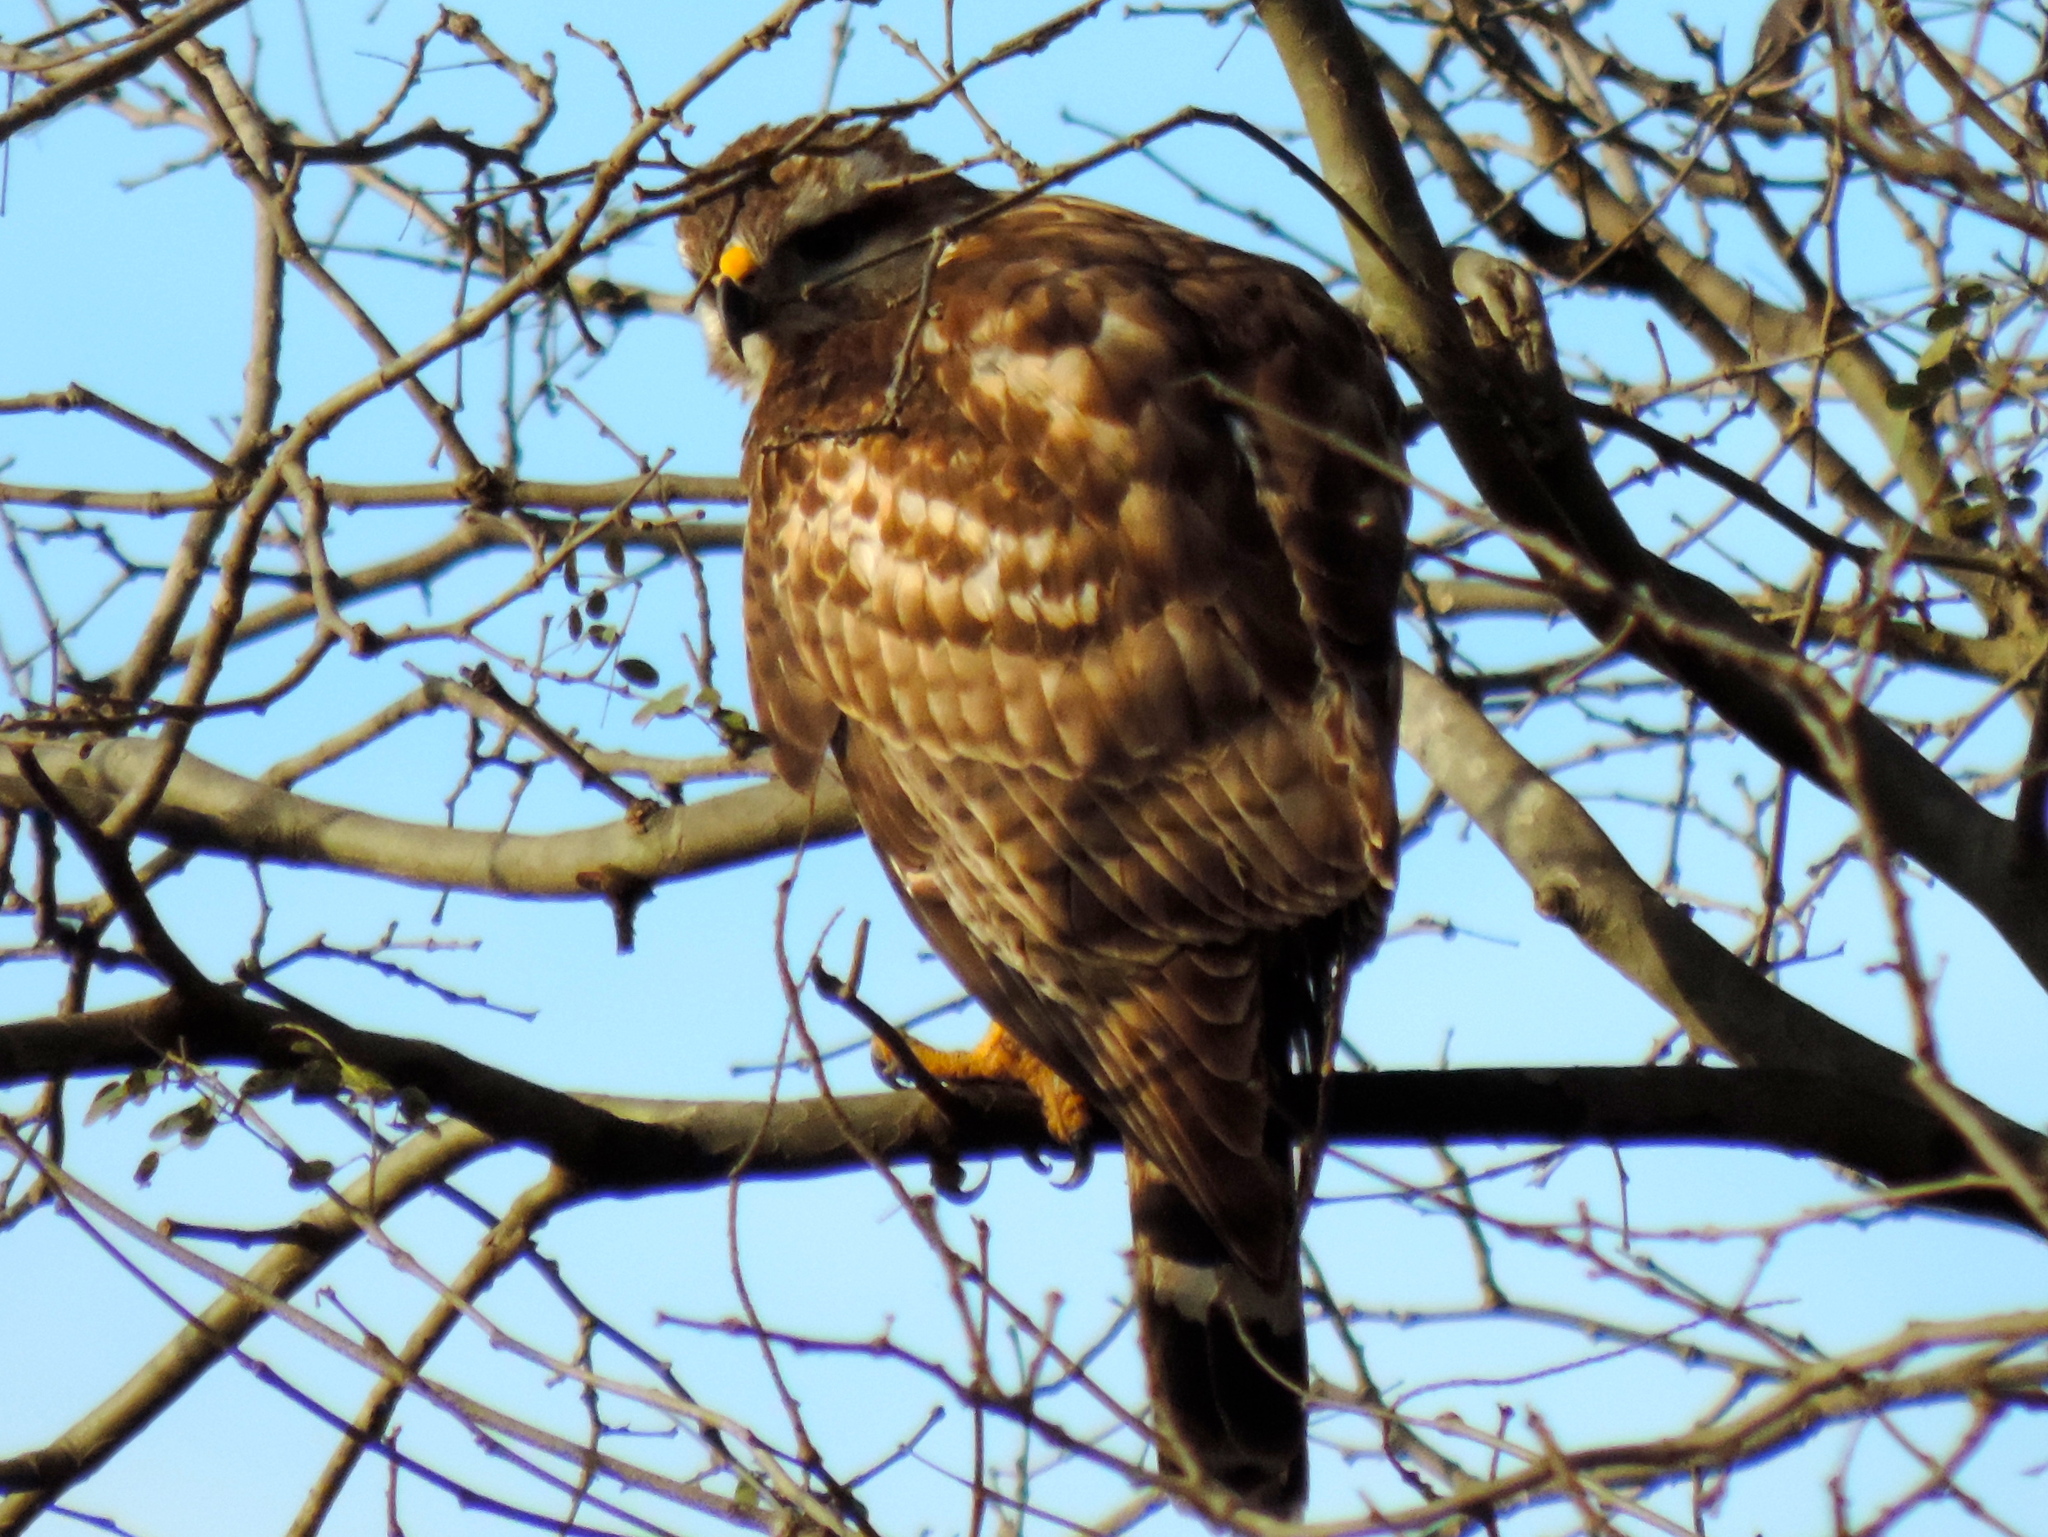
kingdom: Animalia
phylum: Chordata
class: Aves
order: Accipitriformes
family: Accipitridae
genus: Buteo
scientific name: Buteo nitidus
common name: Grey-lined hawk
